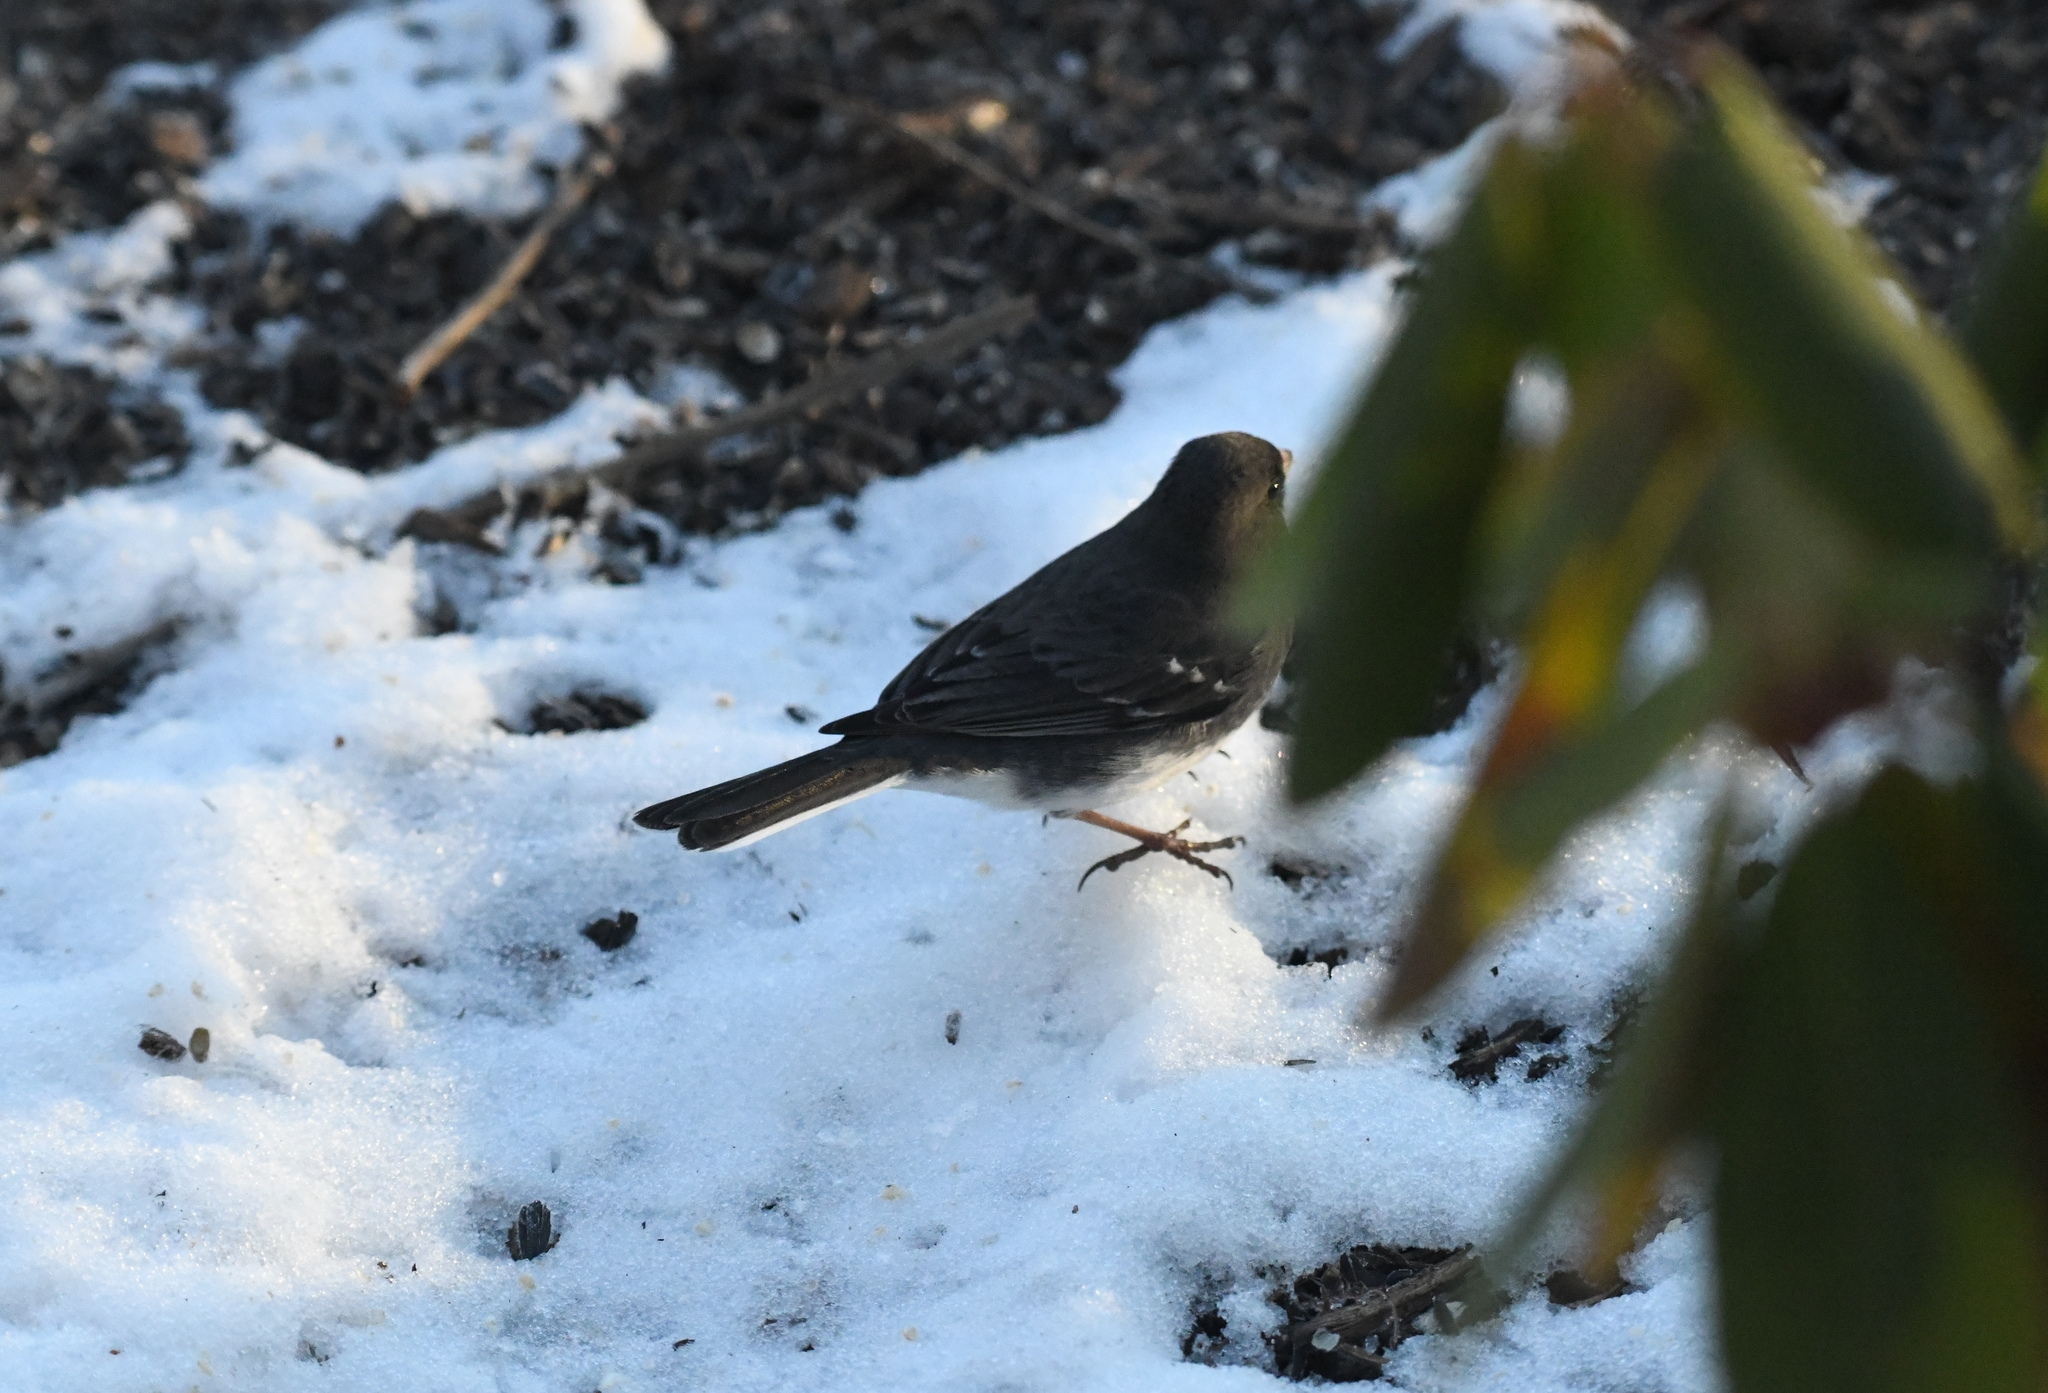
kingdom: Animalia
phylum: Chordata
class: Aves
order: Passeriformes
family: Passerellidae
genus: Junco
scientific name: Junco hyemalis
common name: Dark-eyed junco
